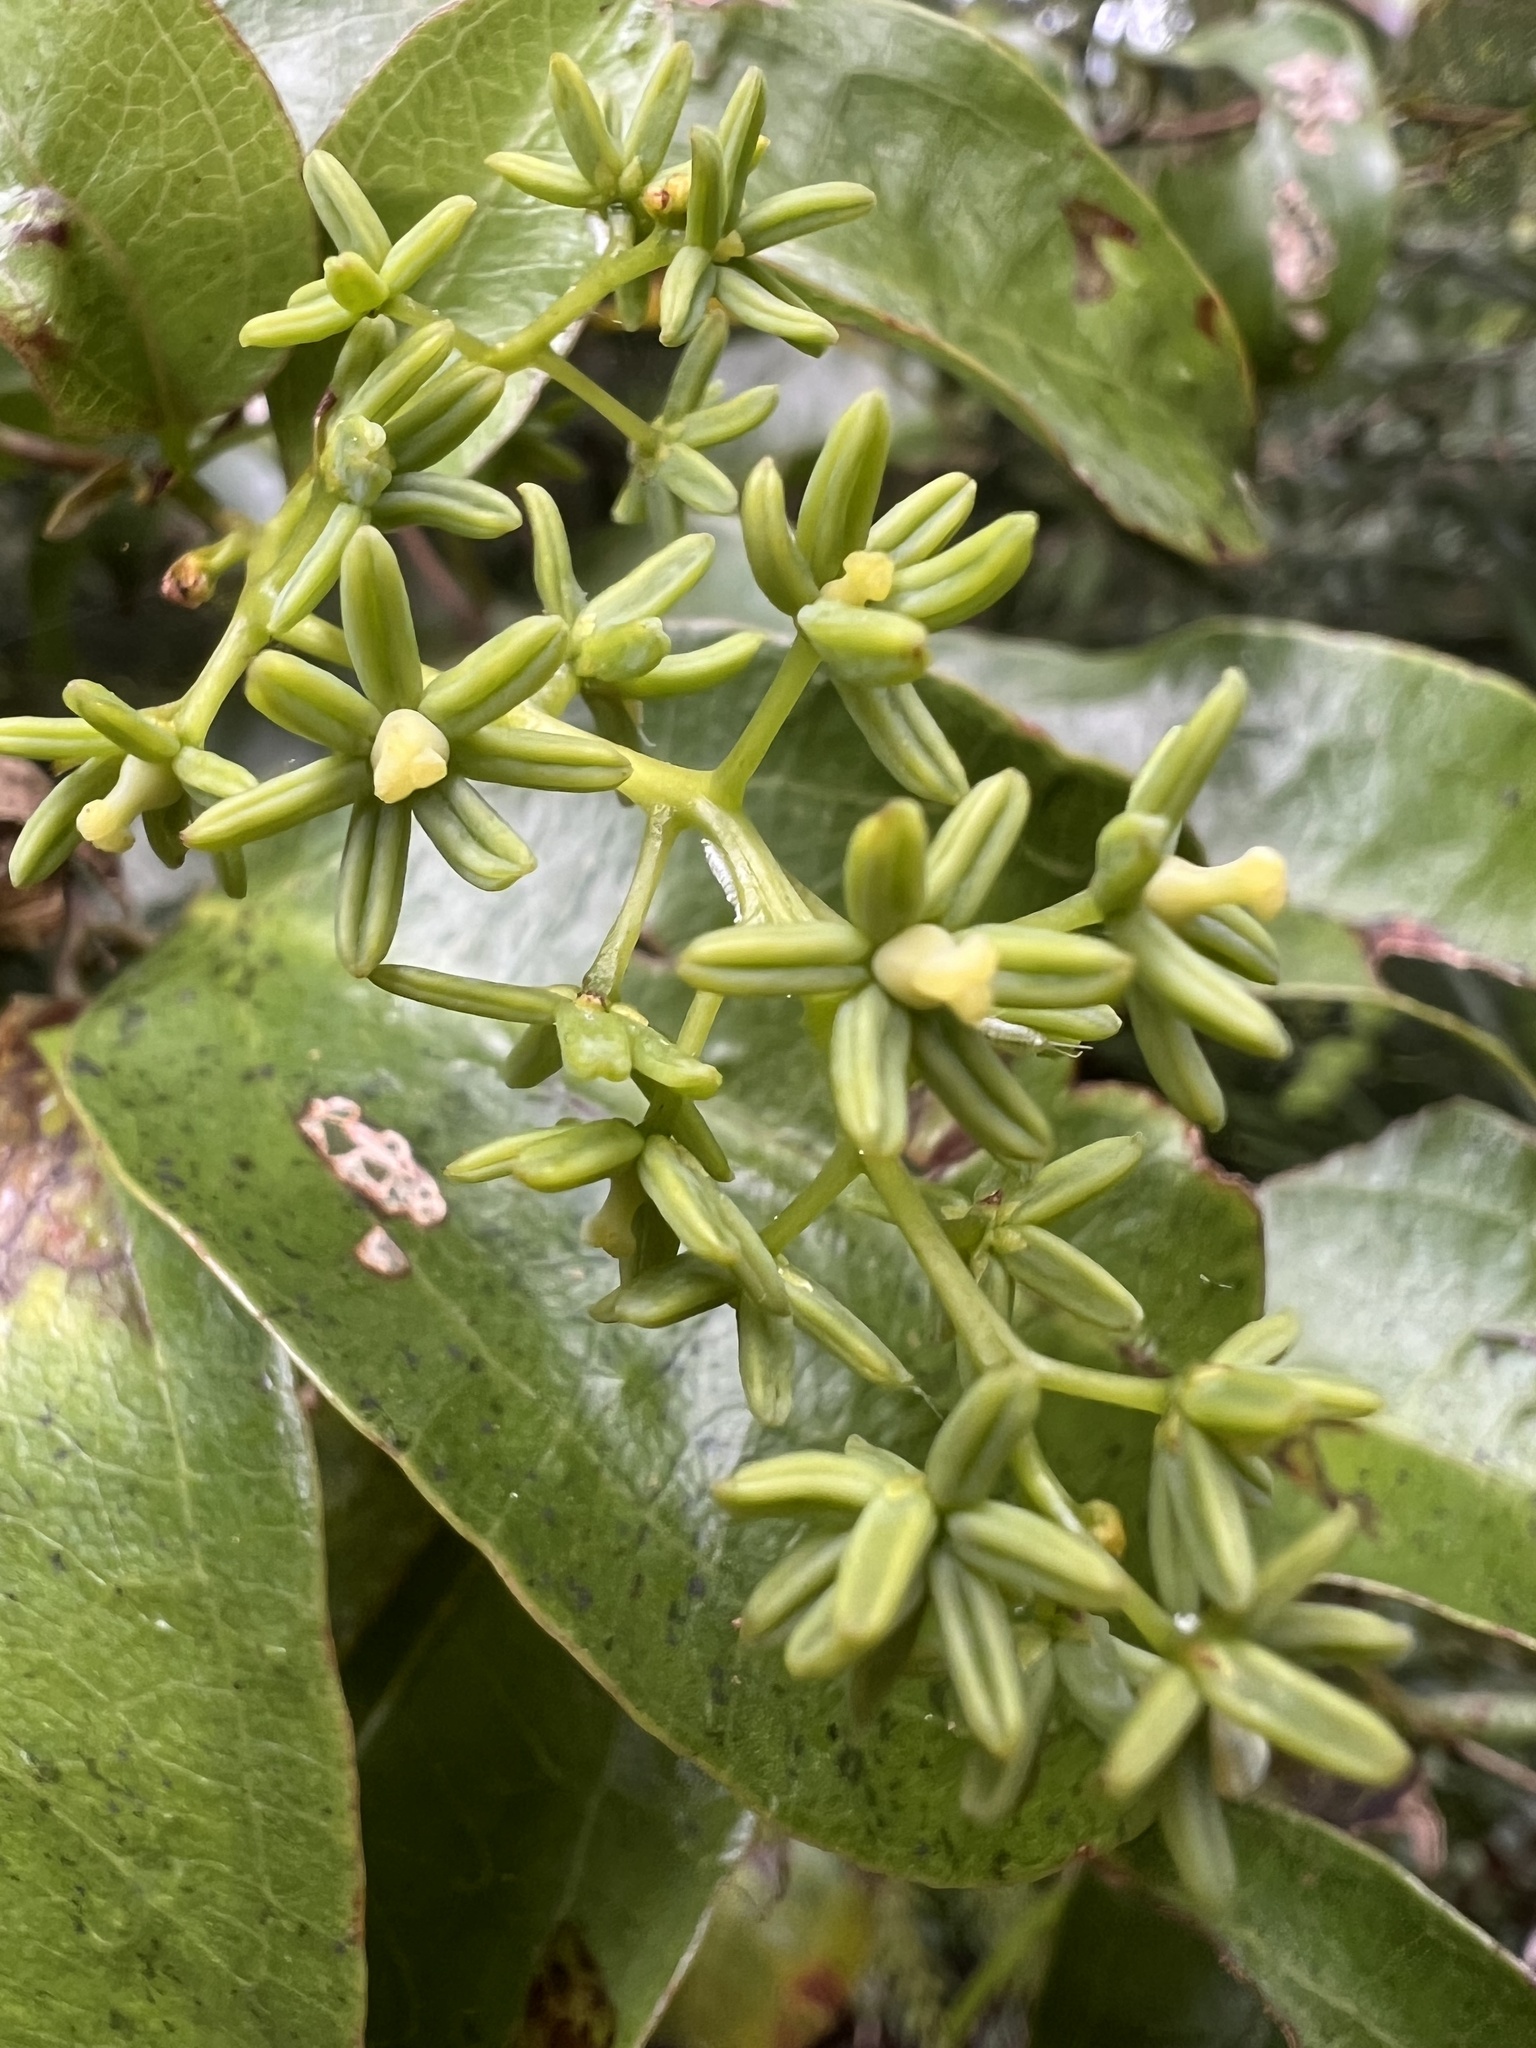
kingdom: Plantae
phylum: Tracheophyta
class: Liliopsida
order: Liliales
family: Ripogonaceae
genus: Ripogonum
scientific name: Ripogonum scandens
